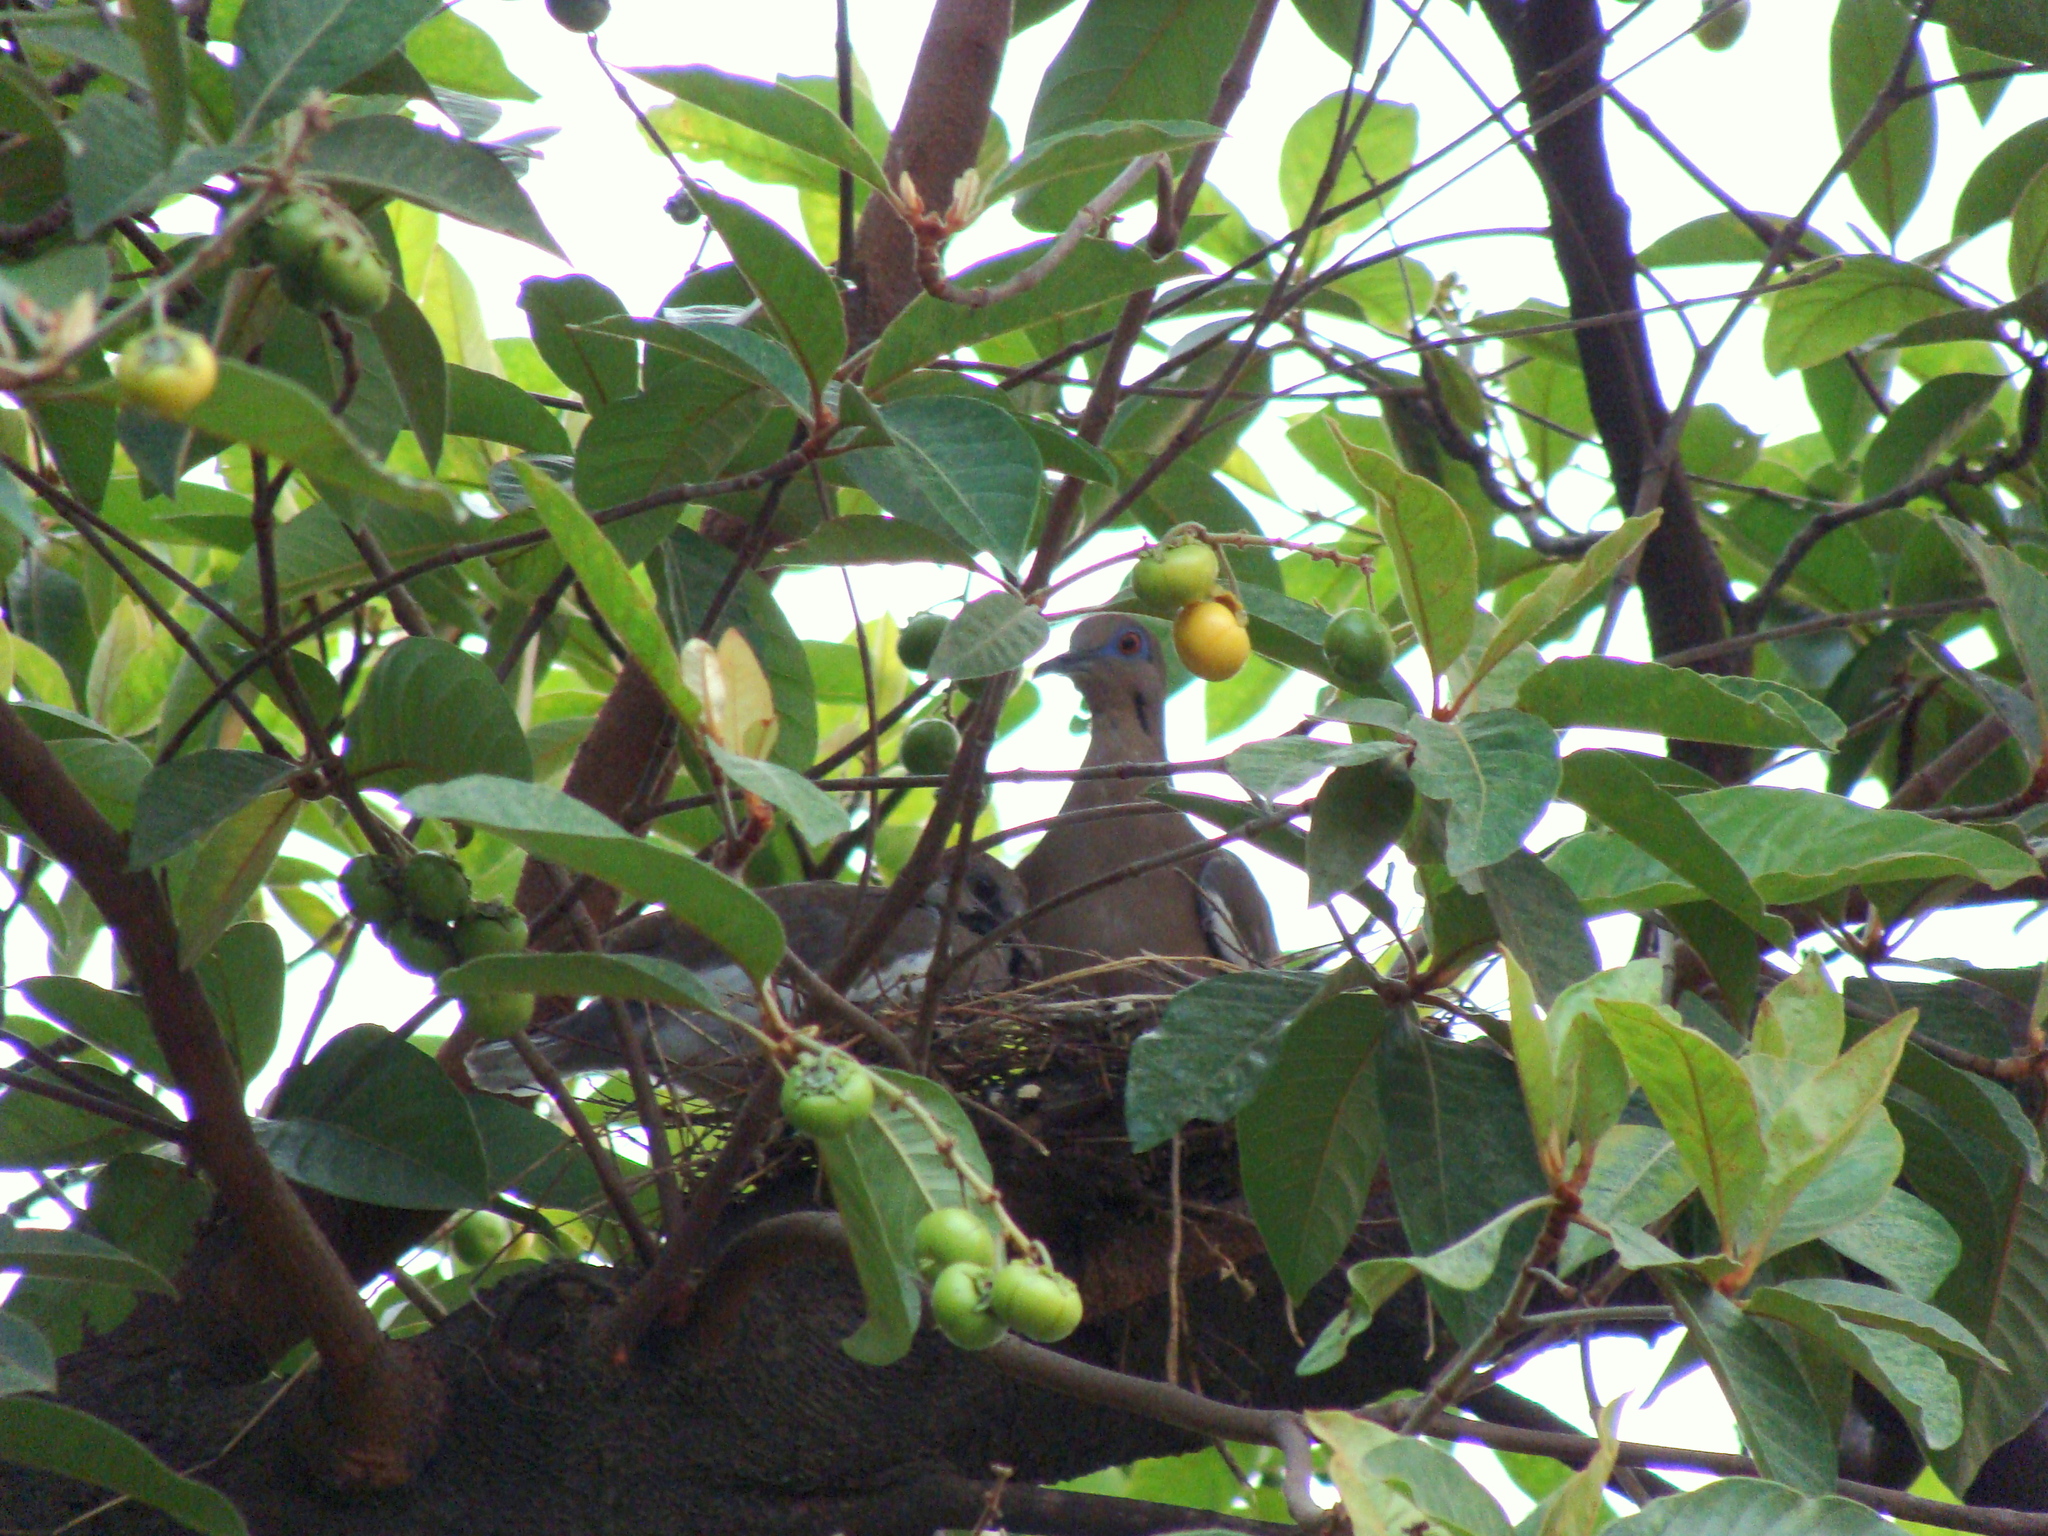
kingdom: Animalia
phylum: Chordata
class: Aves
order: Columbiformes
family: Columbidae
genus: Zenaida
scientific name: Zenaida asiatica
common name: White-winged dove
